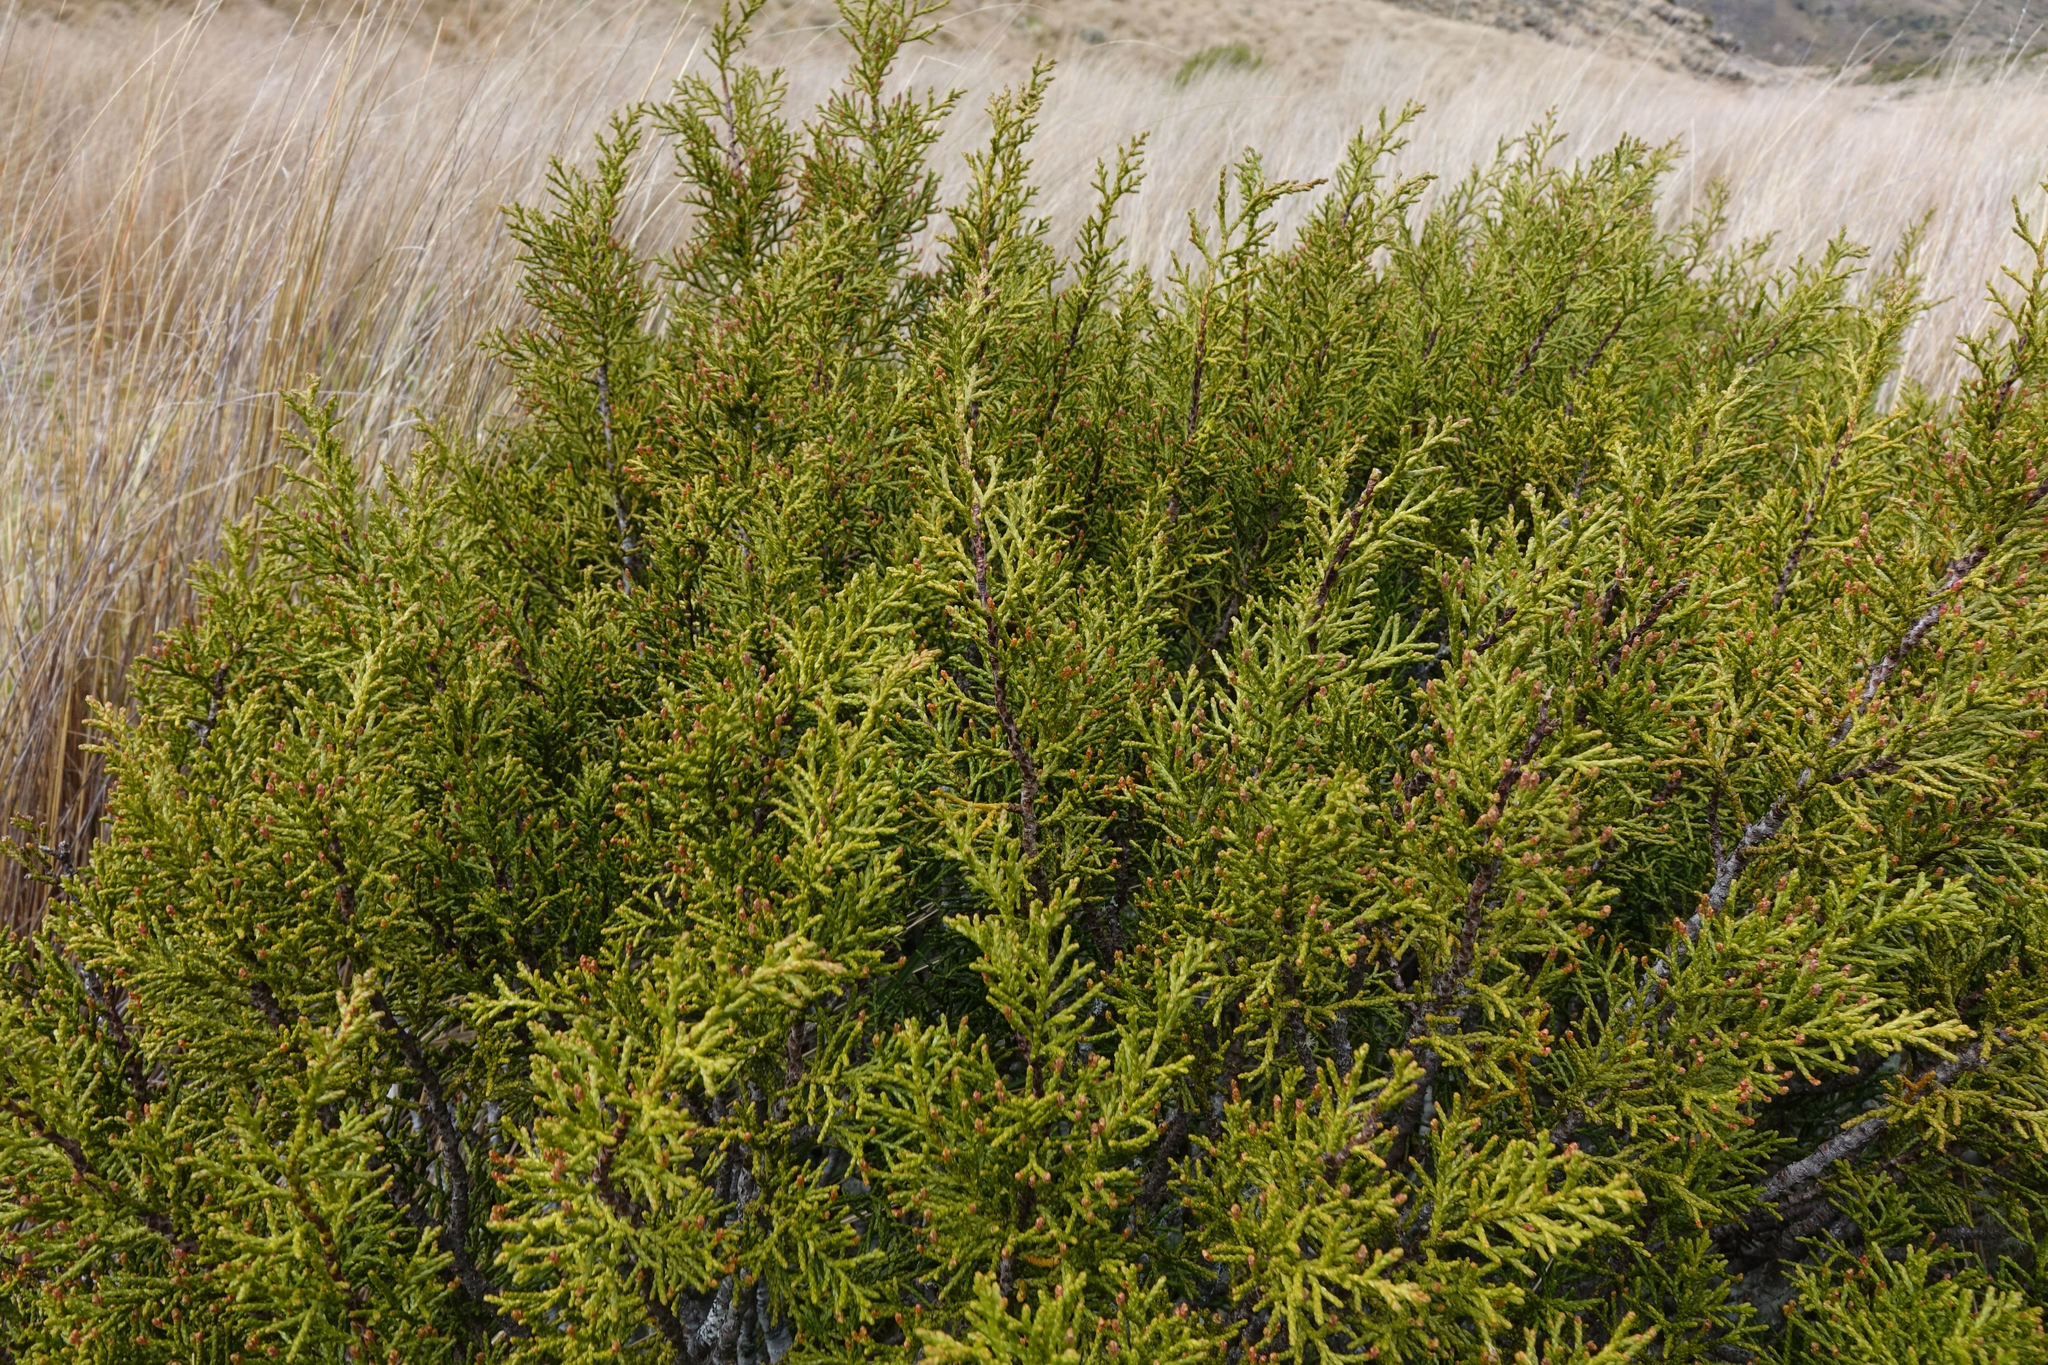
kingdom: Plantae
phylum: Tracheophyta
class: Pinopsida
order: Pinales
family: Podocarpaceae
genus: Halocarpus
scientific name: Halocarpus bidwillii
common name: Bog pine
